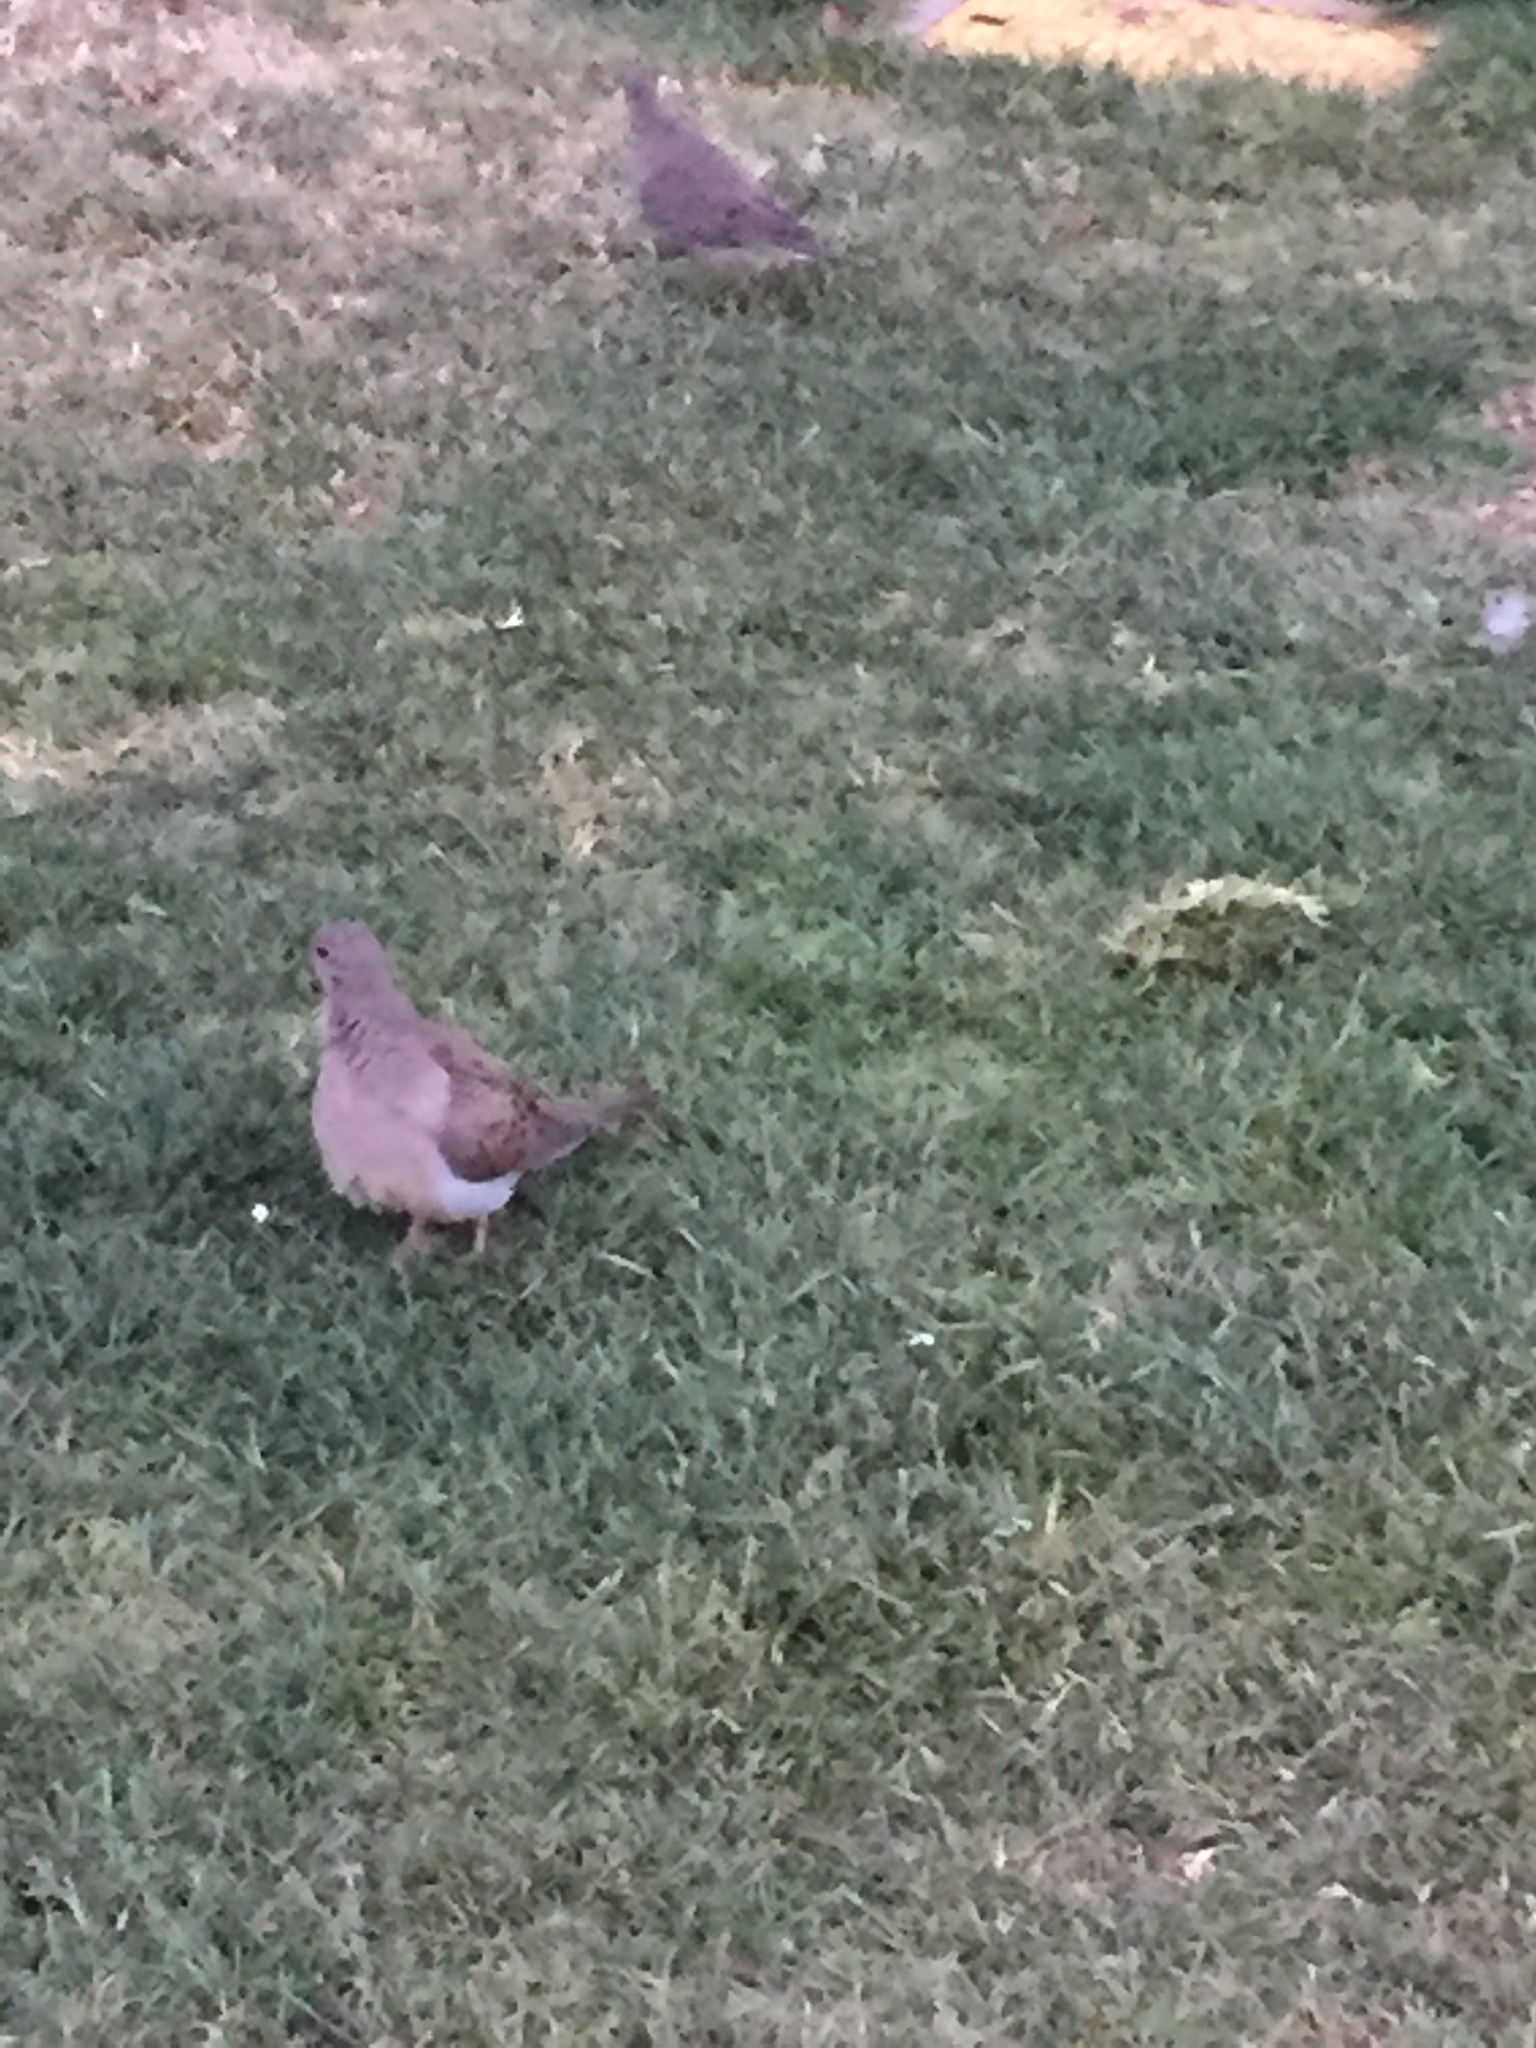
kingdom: Animalia
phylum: Chordata
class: Aves
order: Columbiformes
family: Columbidae
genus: Zenaida
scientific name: Zenaida macroura
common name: Mourning dove
